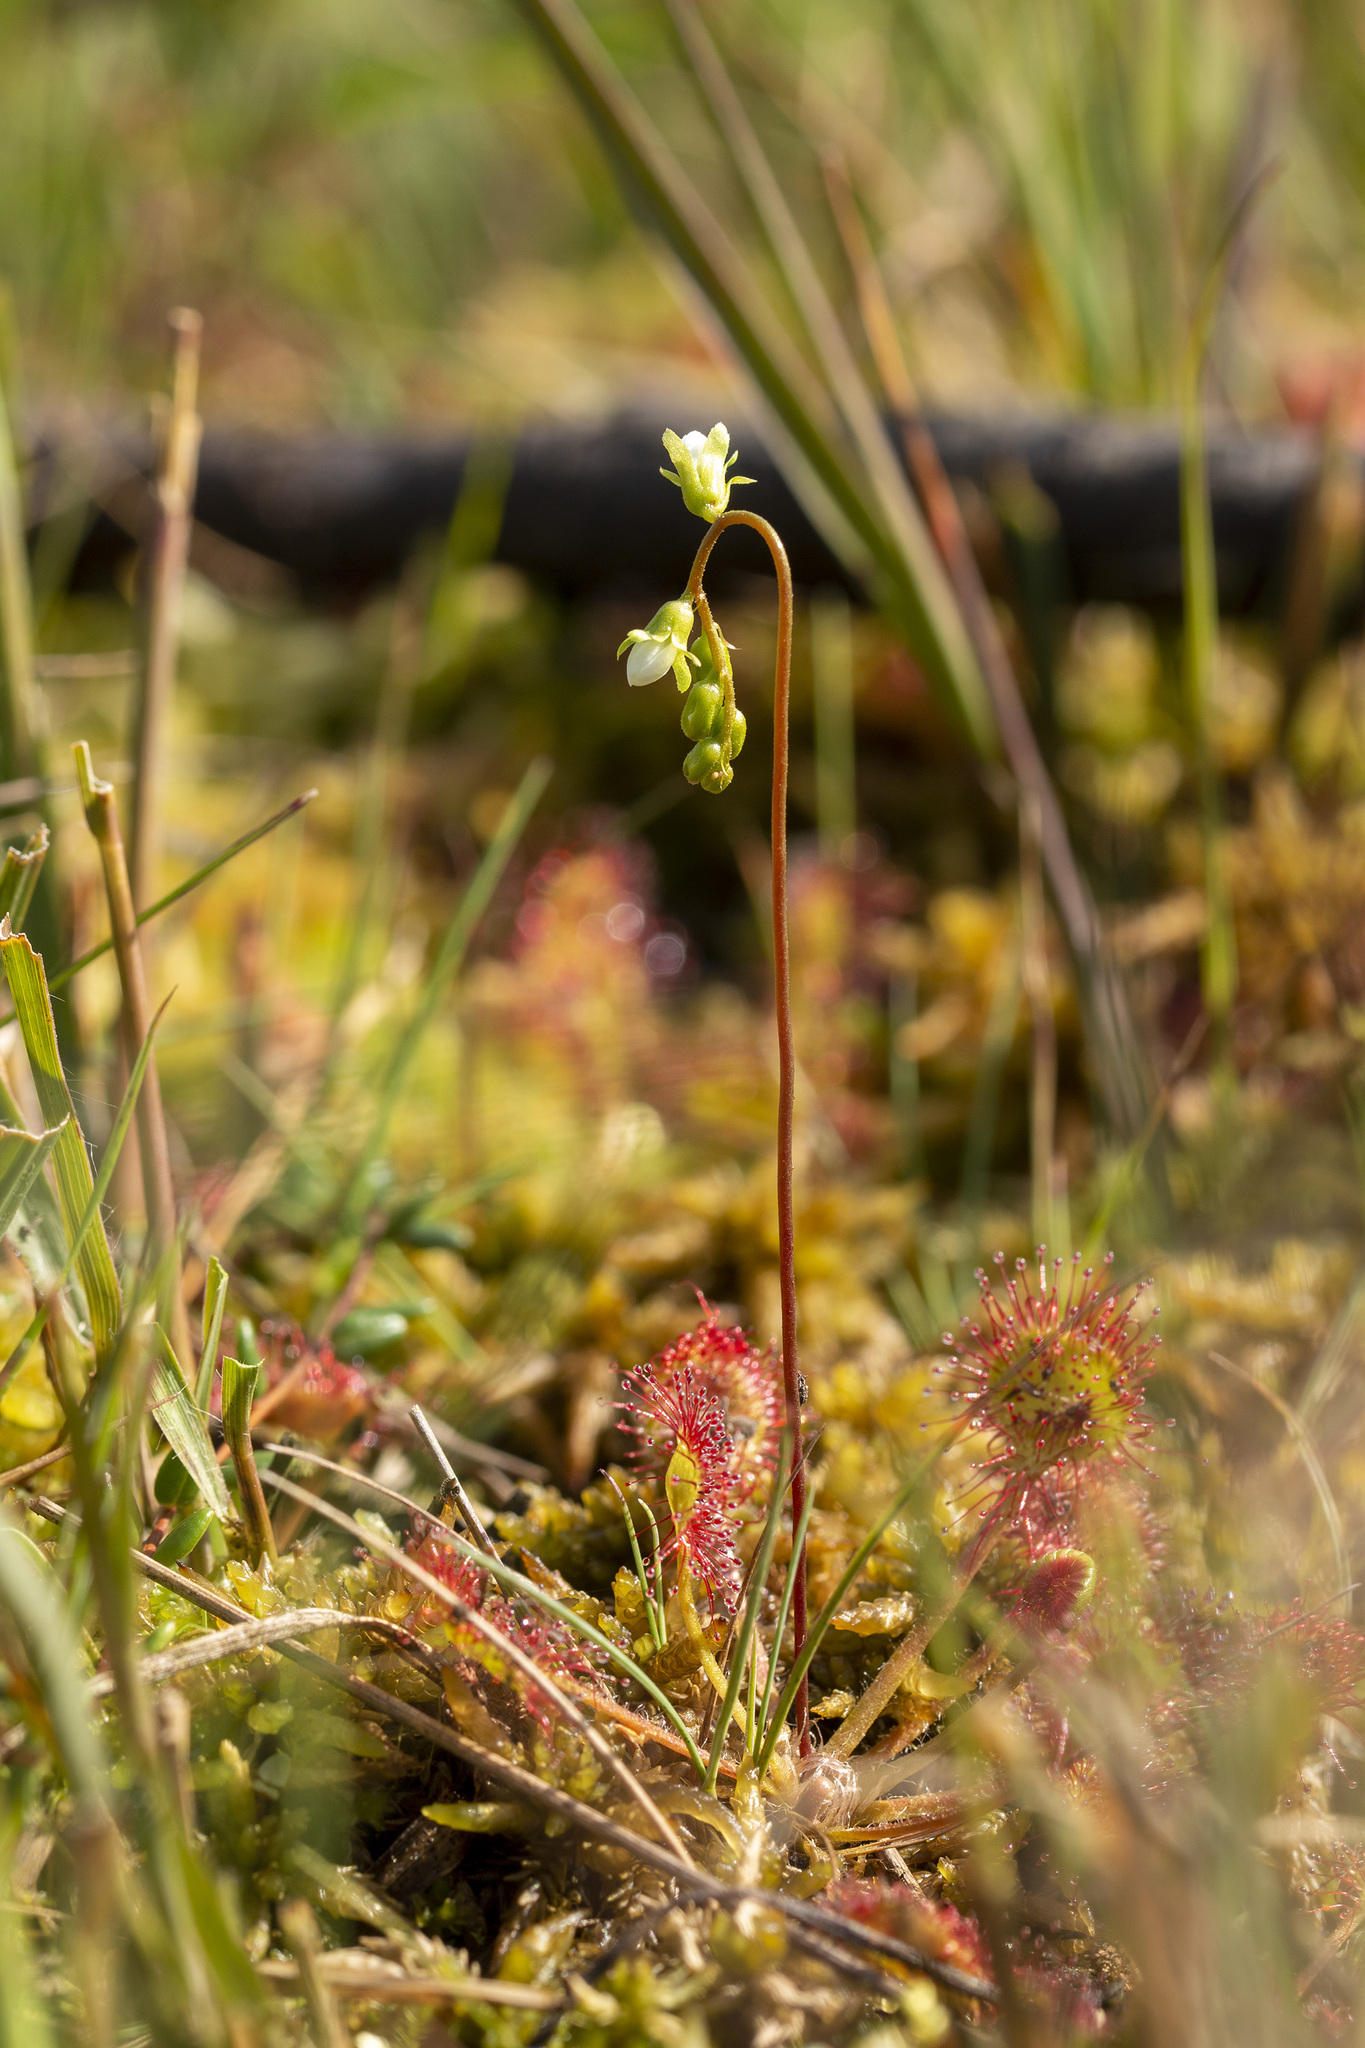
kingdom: Plantae
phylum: Tracheophyta
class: Magnoliopsida
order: Caryophyllales
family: Droseraceae
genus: Drosera
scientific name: Drosera rotundifolia
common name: Round-leaved sundew
